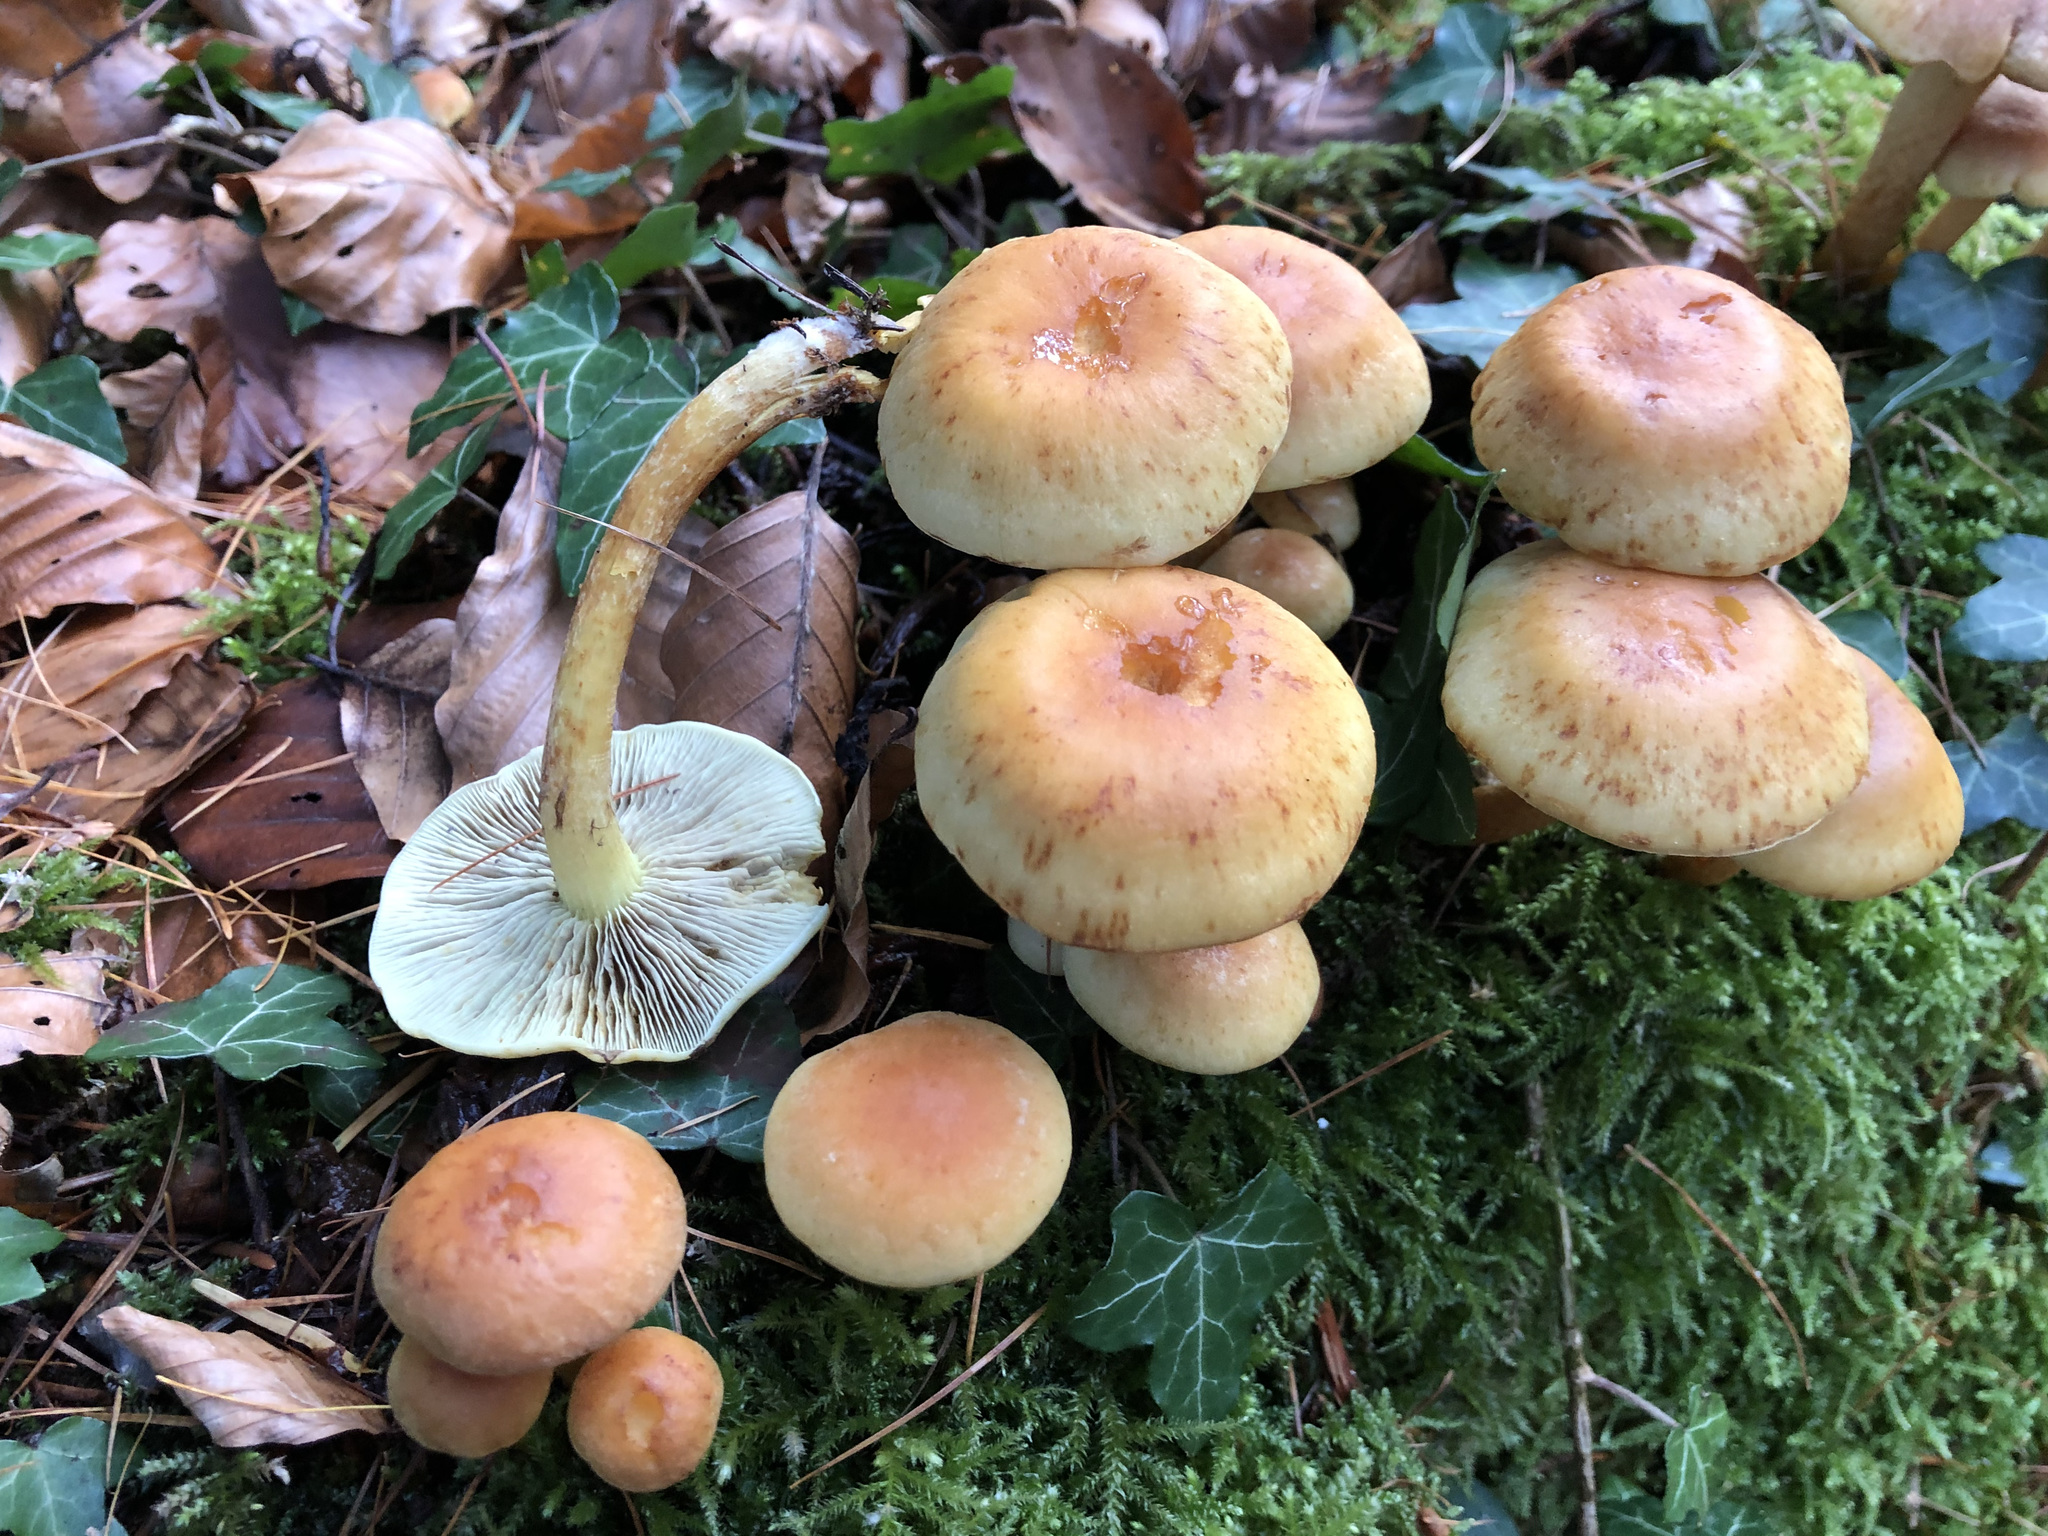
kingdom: Fungi
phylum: Basidiomycota
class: Agaricomycetes
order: Agaricales
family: Strophariaceae
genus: Hypholoma
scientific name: Hypholoma fasciculare
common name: Sulphur tuft
